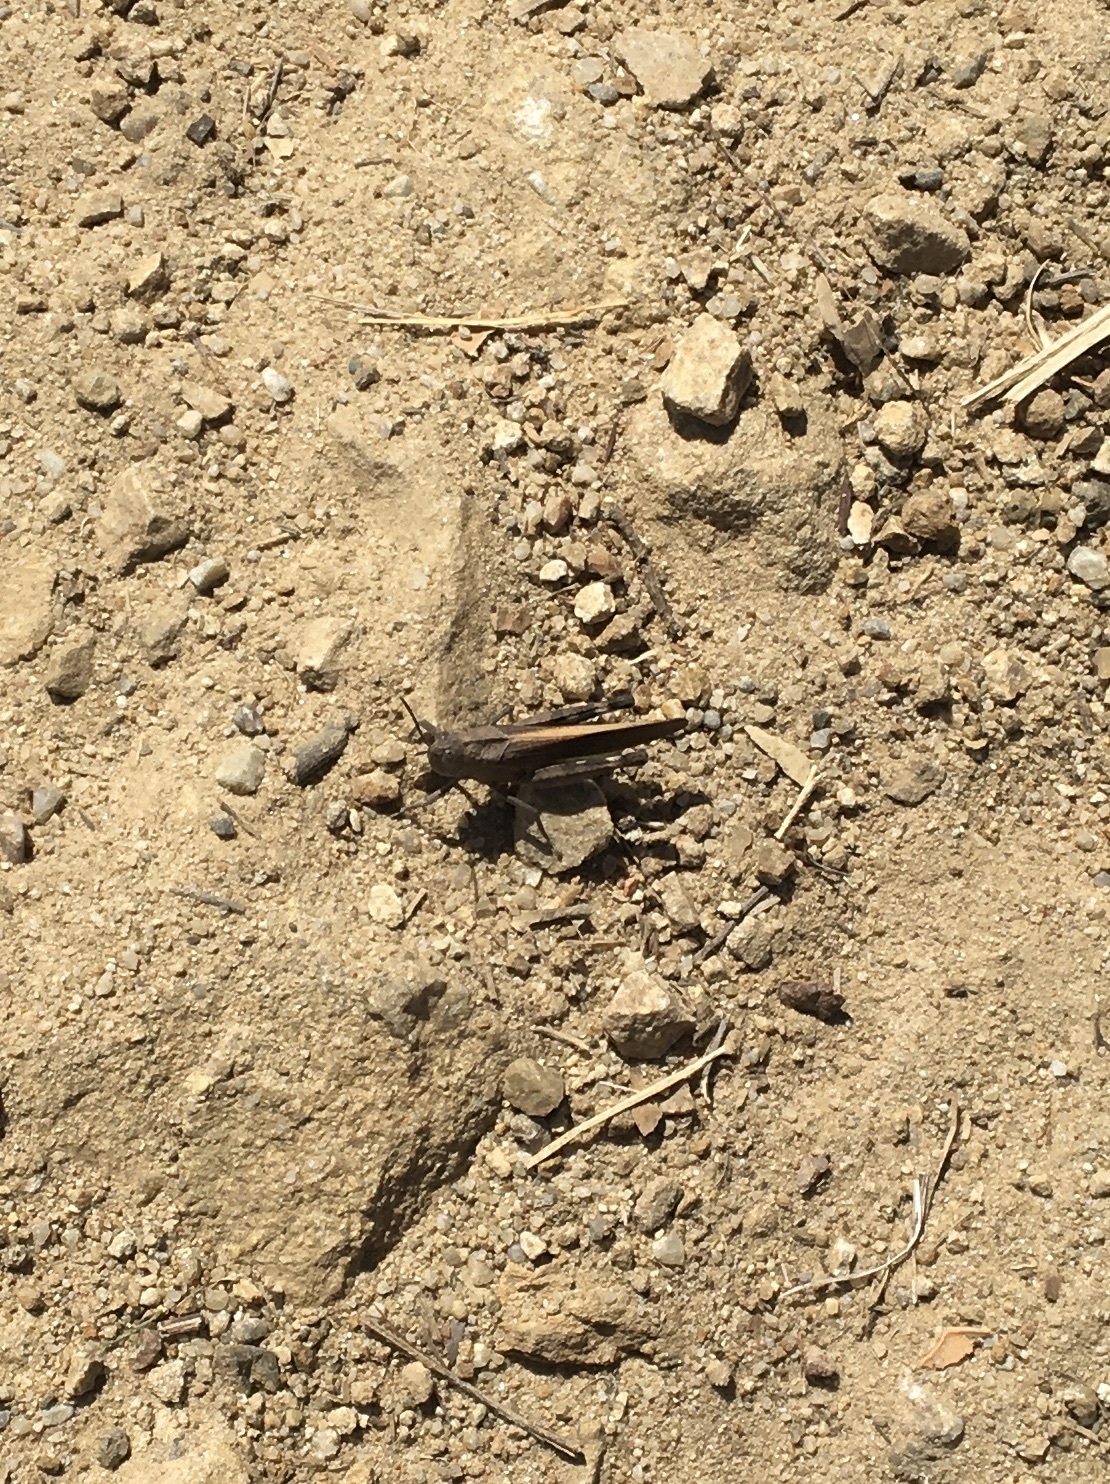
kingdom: Animalia
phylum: Arthropoda
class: Insecta
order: Orthoptera
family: Acrididae
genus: Arphia
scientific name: Arphia ramona
